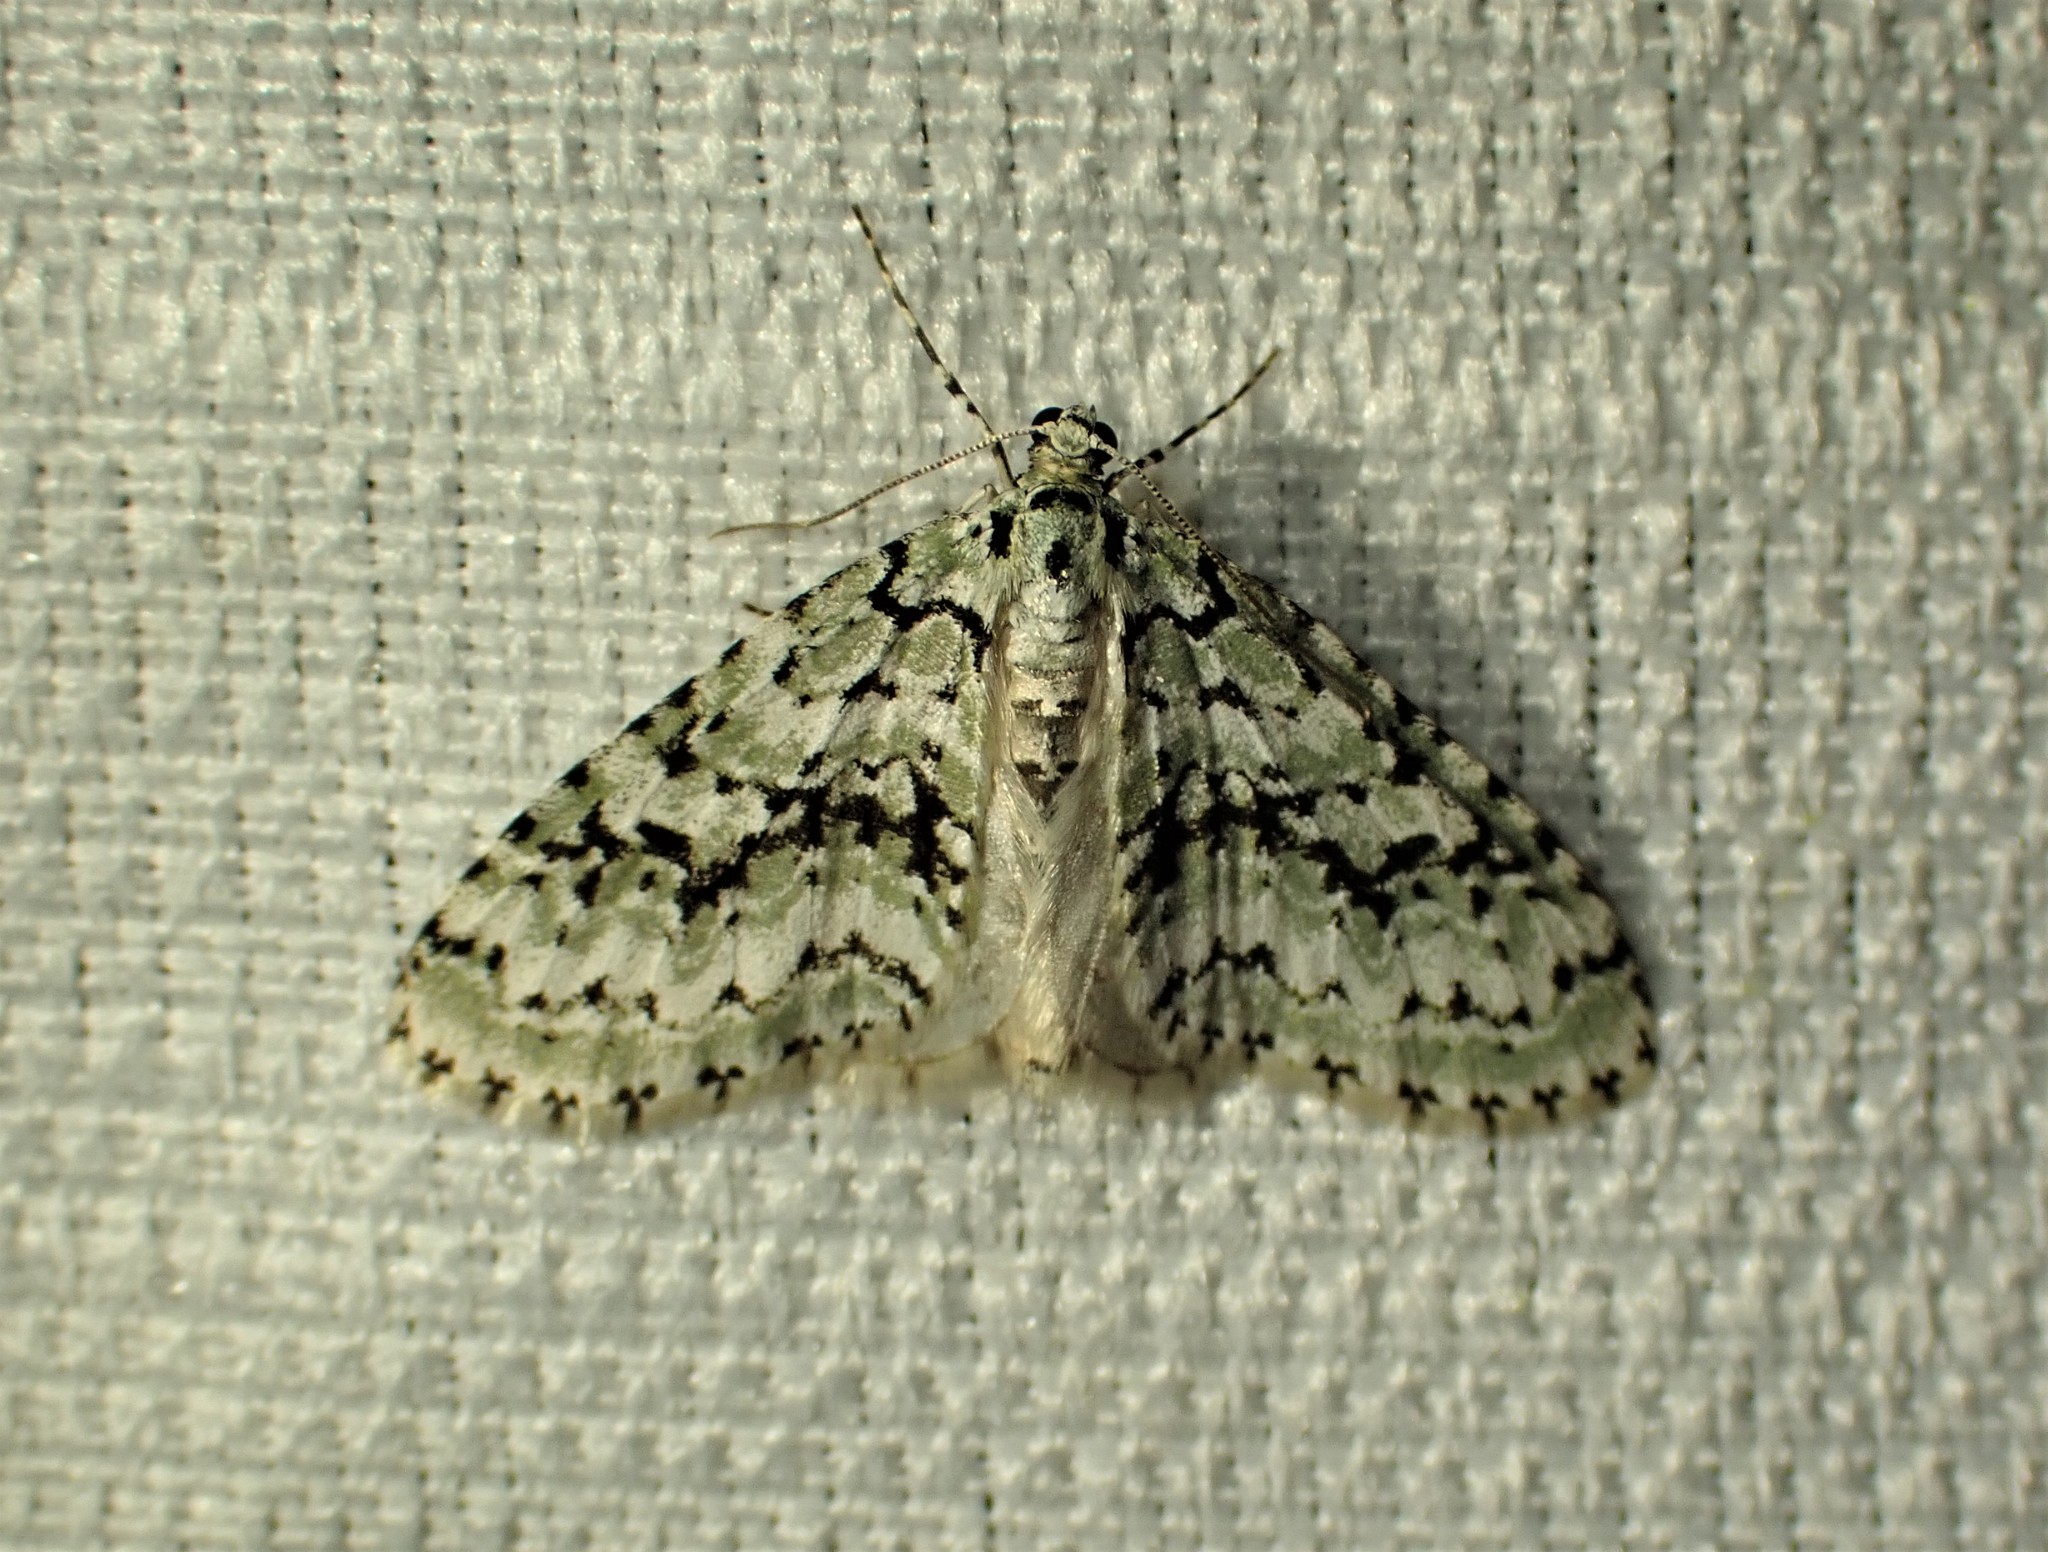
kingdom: Animalia
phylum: Arthropoda
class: Insecta
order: Lepidoptera
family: Geometridae
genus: Cladara
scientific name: Cladara atroliturata
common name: Scribbler
